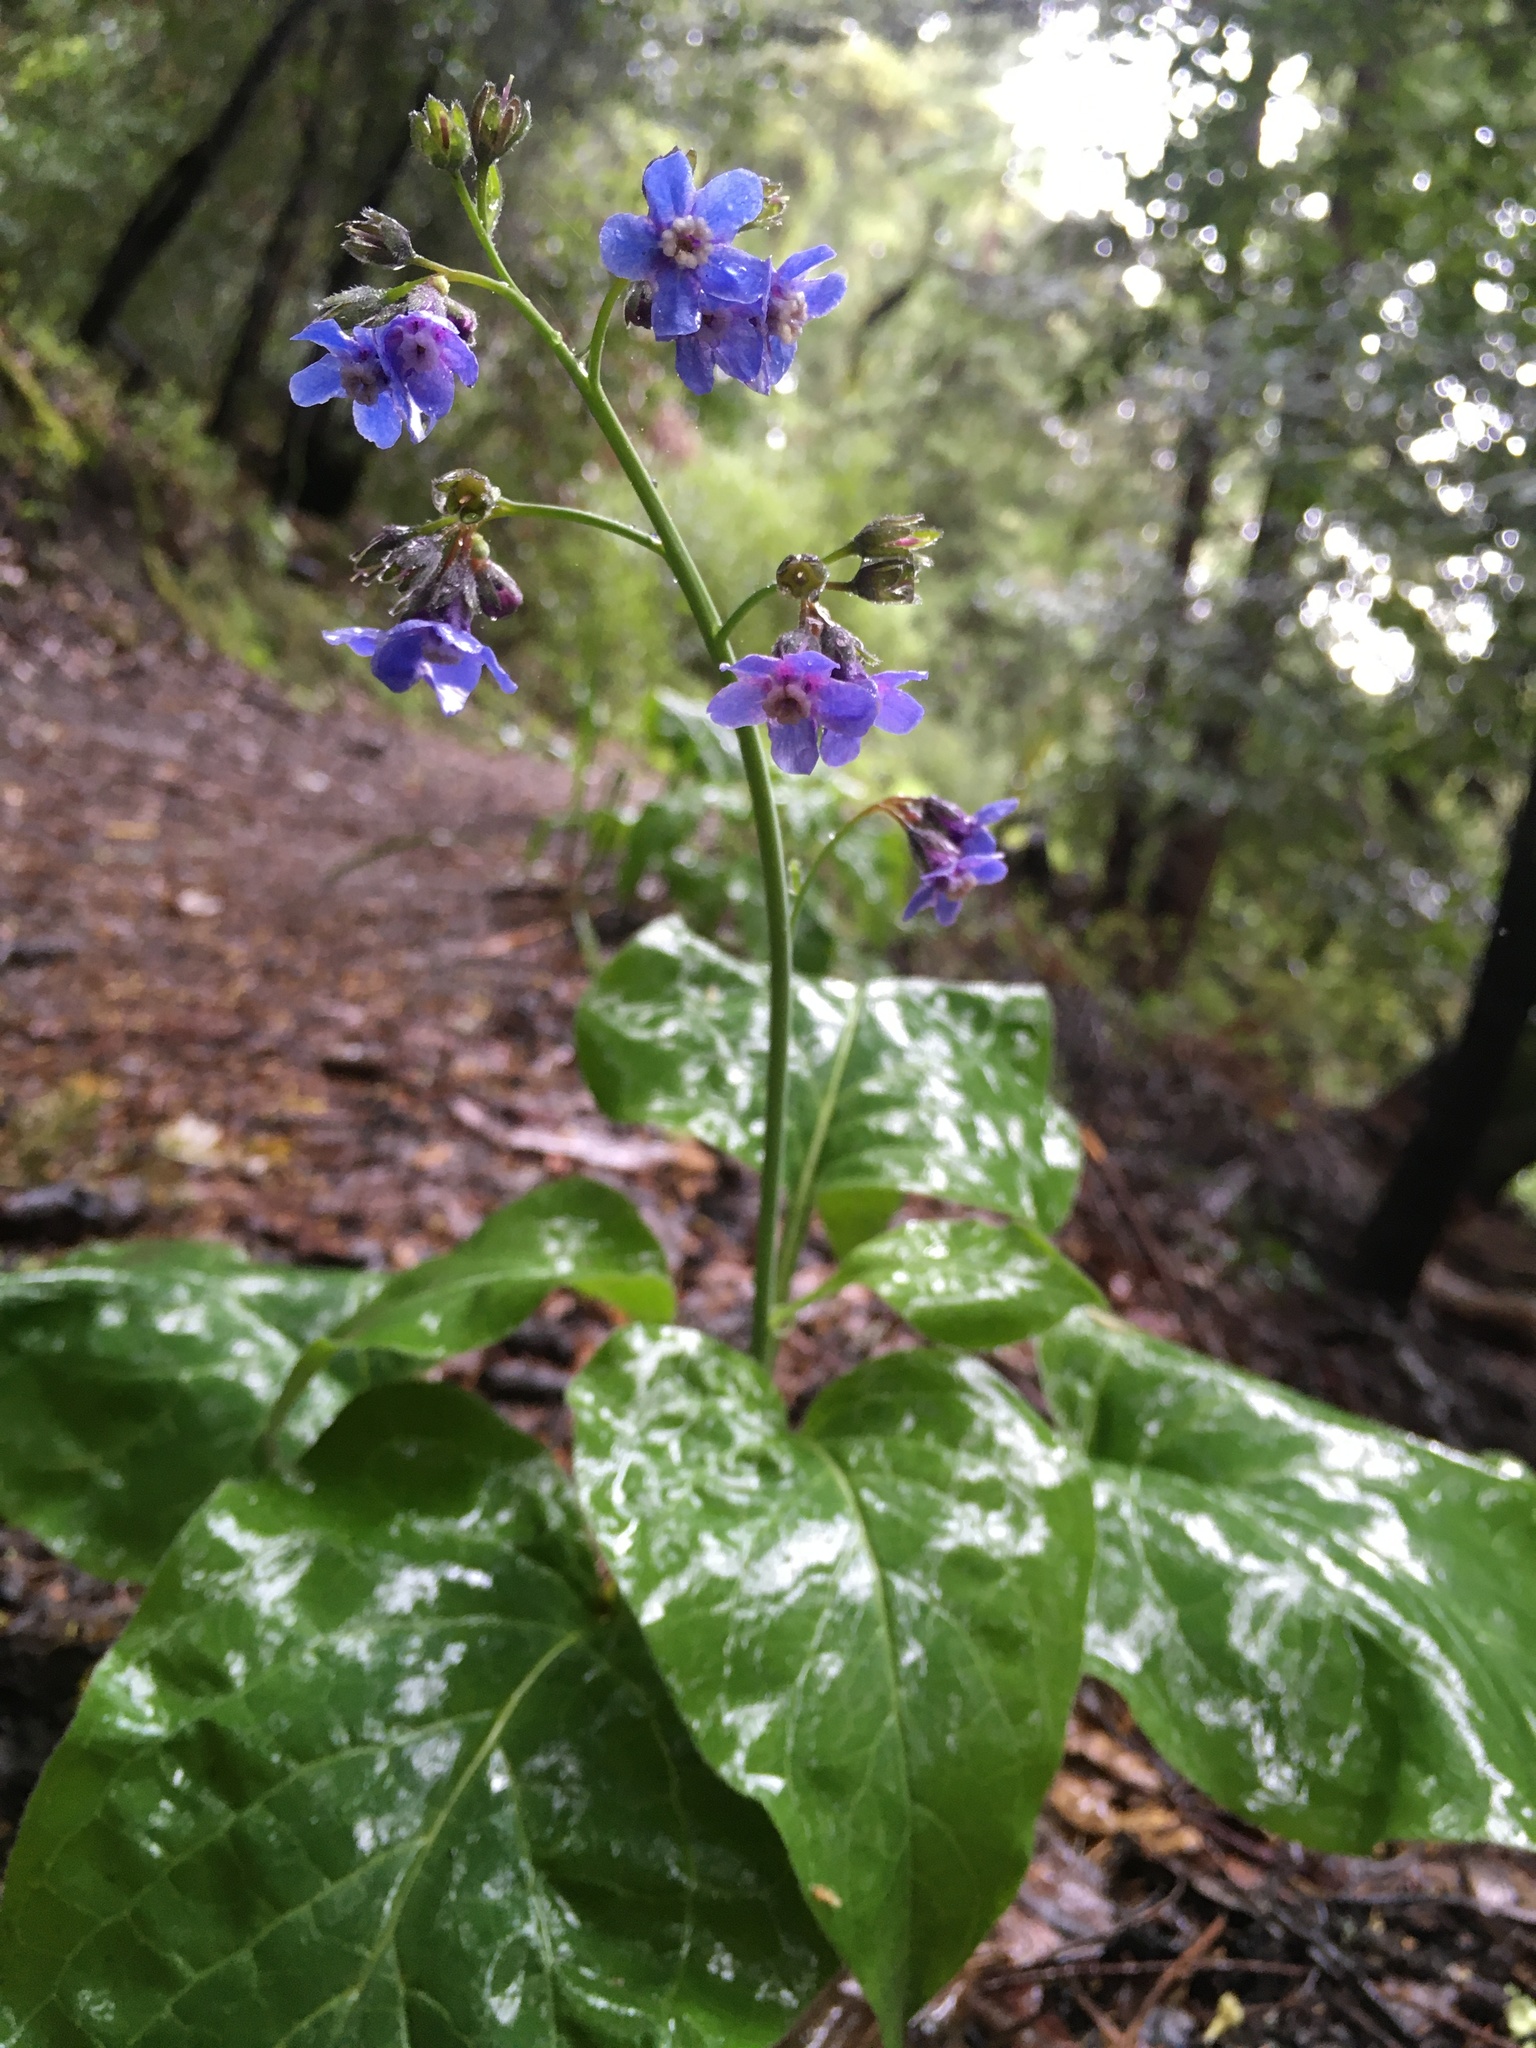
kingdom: Plantae
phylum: Tracheophyta
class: Magnoliopsida
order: Boraginales
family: Boraginaceae
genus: Adelinia
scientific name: Adelinia grande
